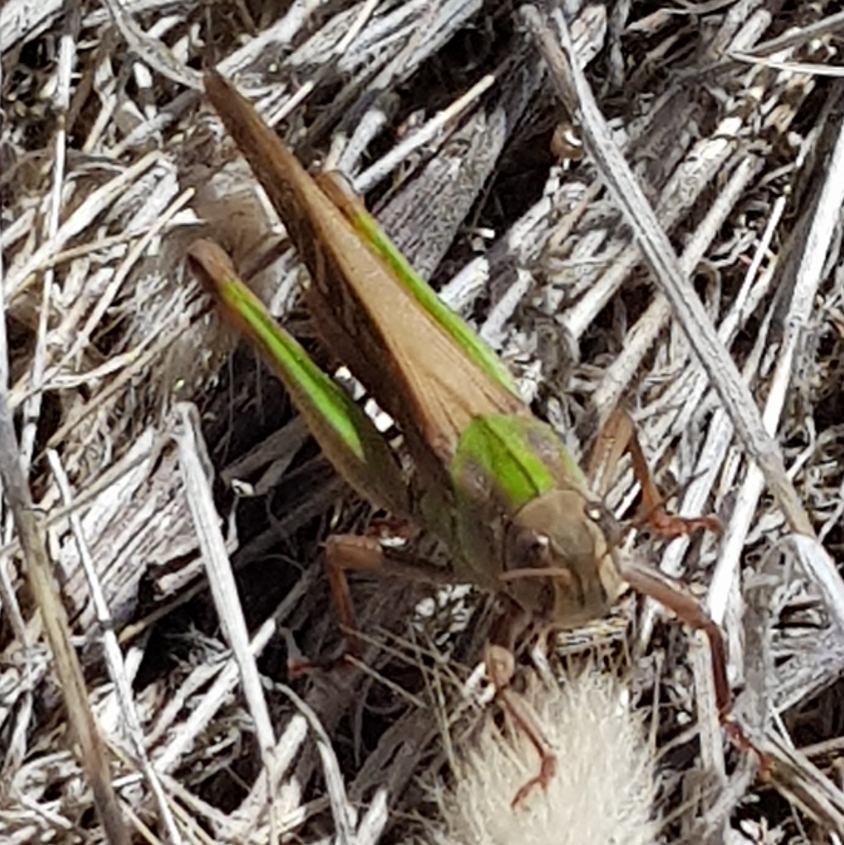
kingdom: Animalia
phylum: Arthropoda
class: Insecta
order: Orthoptera
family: Acrididae
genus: Locusta
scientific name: Locusta migratoria
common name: Migratory locust
